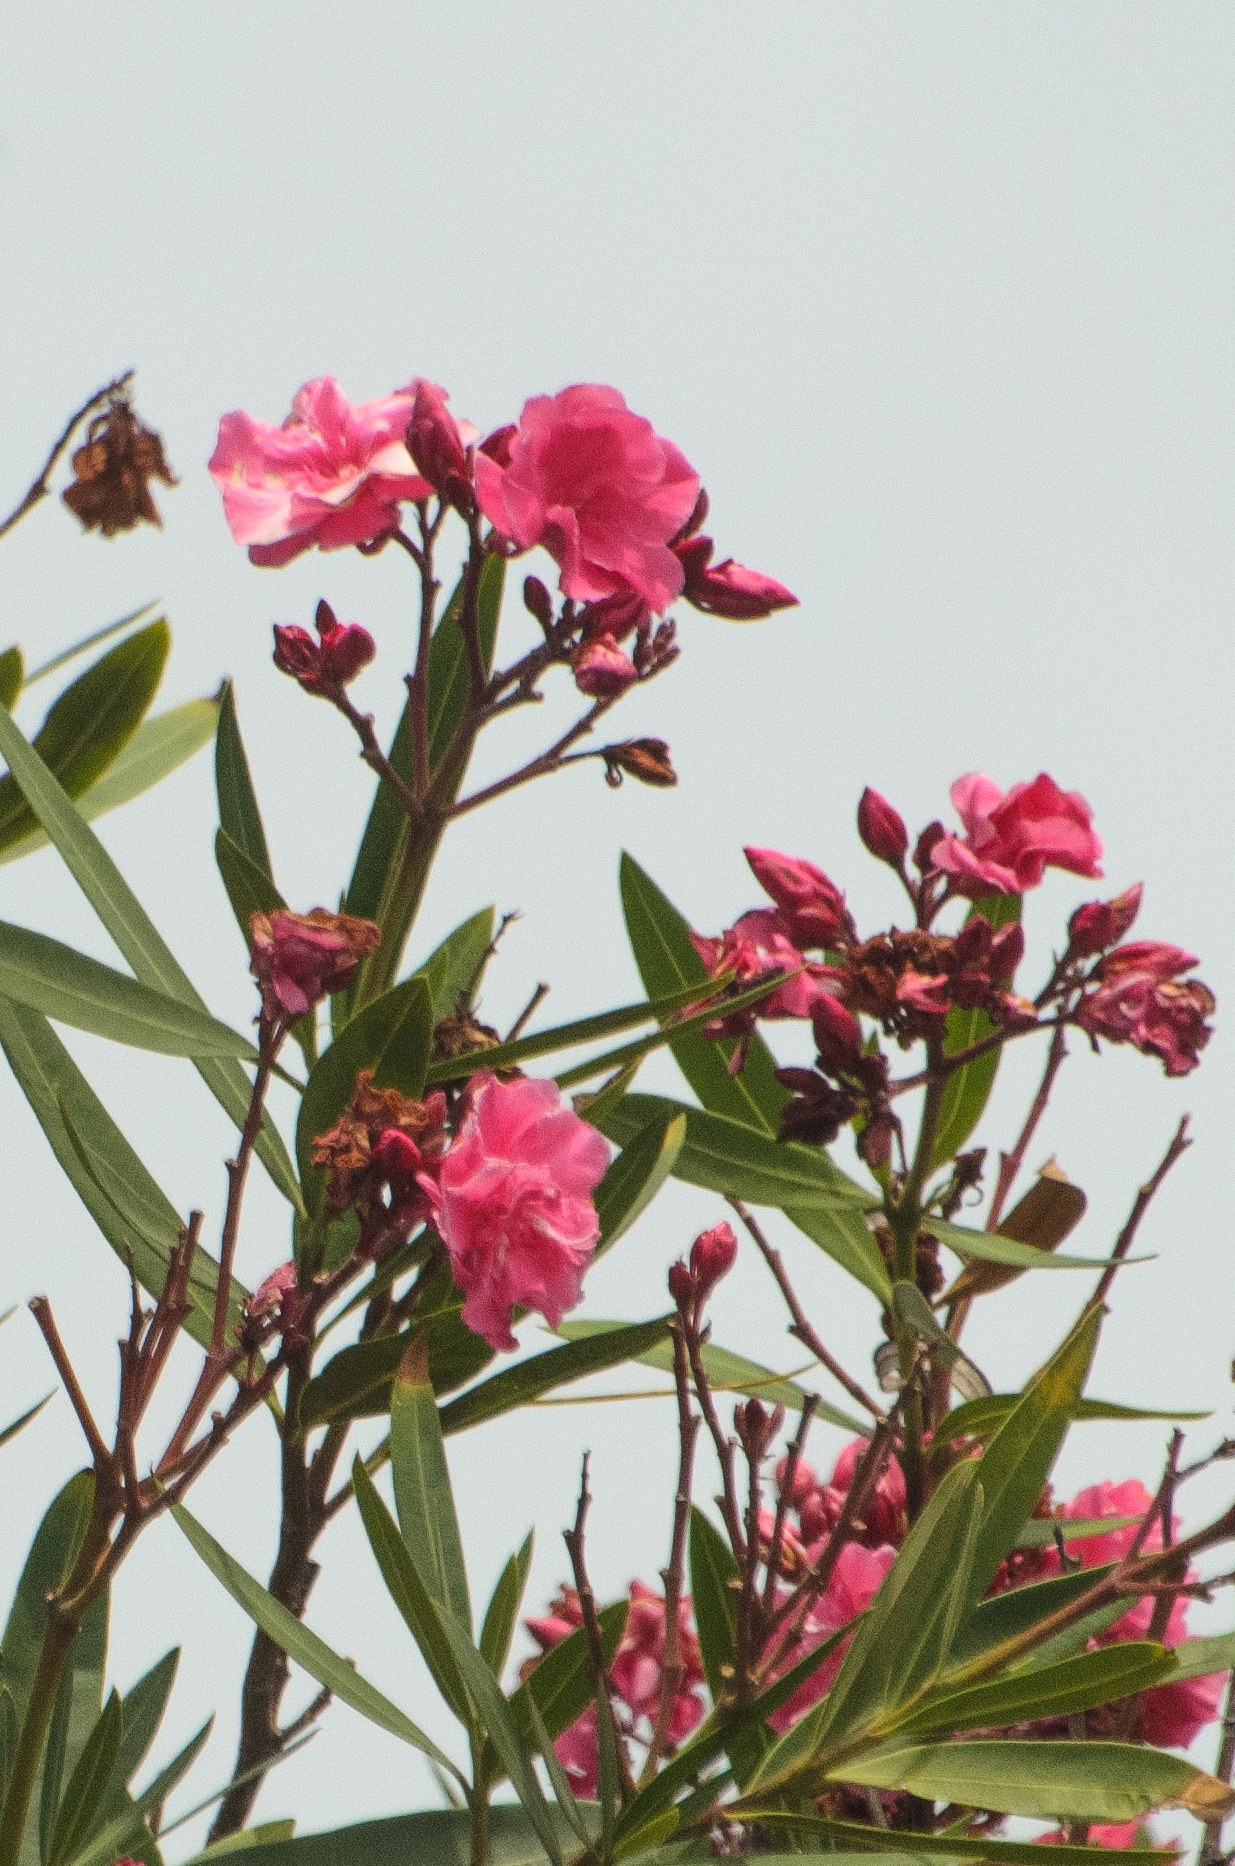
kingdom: Plantae
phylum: Tracheophyta
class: Magnoliopsida
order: Gentianales
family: Apocynaceae
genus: Nerium
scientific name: Nerium oleander
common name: Oleander
